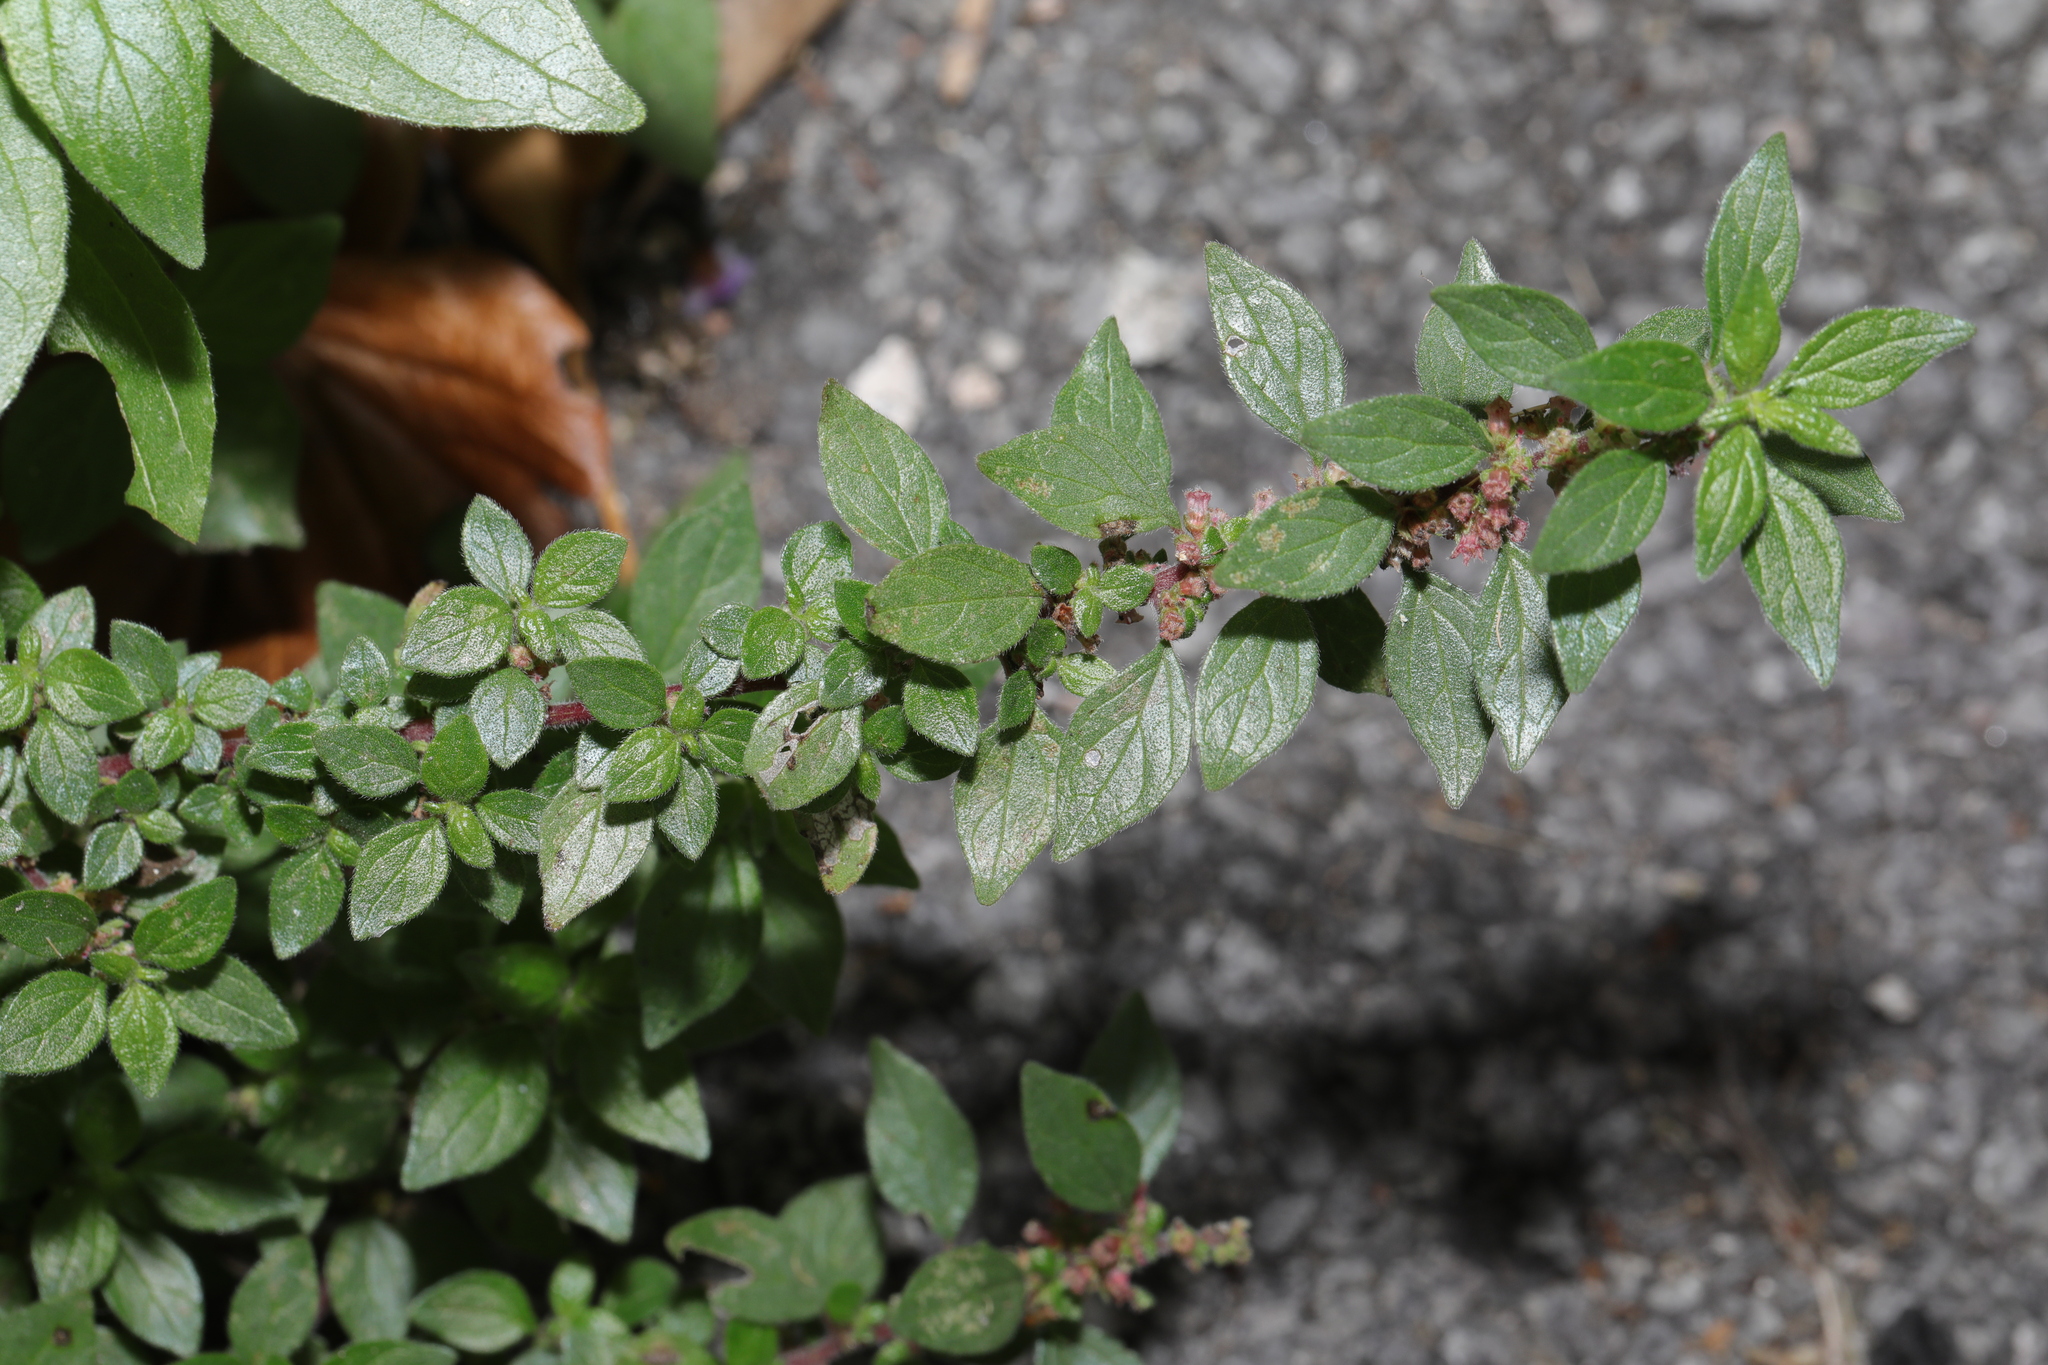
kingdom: Plantae
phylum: Tracheophyta
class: Magnoliopsida
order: Rosales
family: Urticaceae
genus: Parietaria
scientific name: Parietaria judaica
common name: Pellitory-of-the-wall
